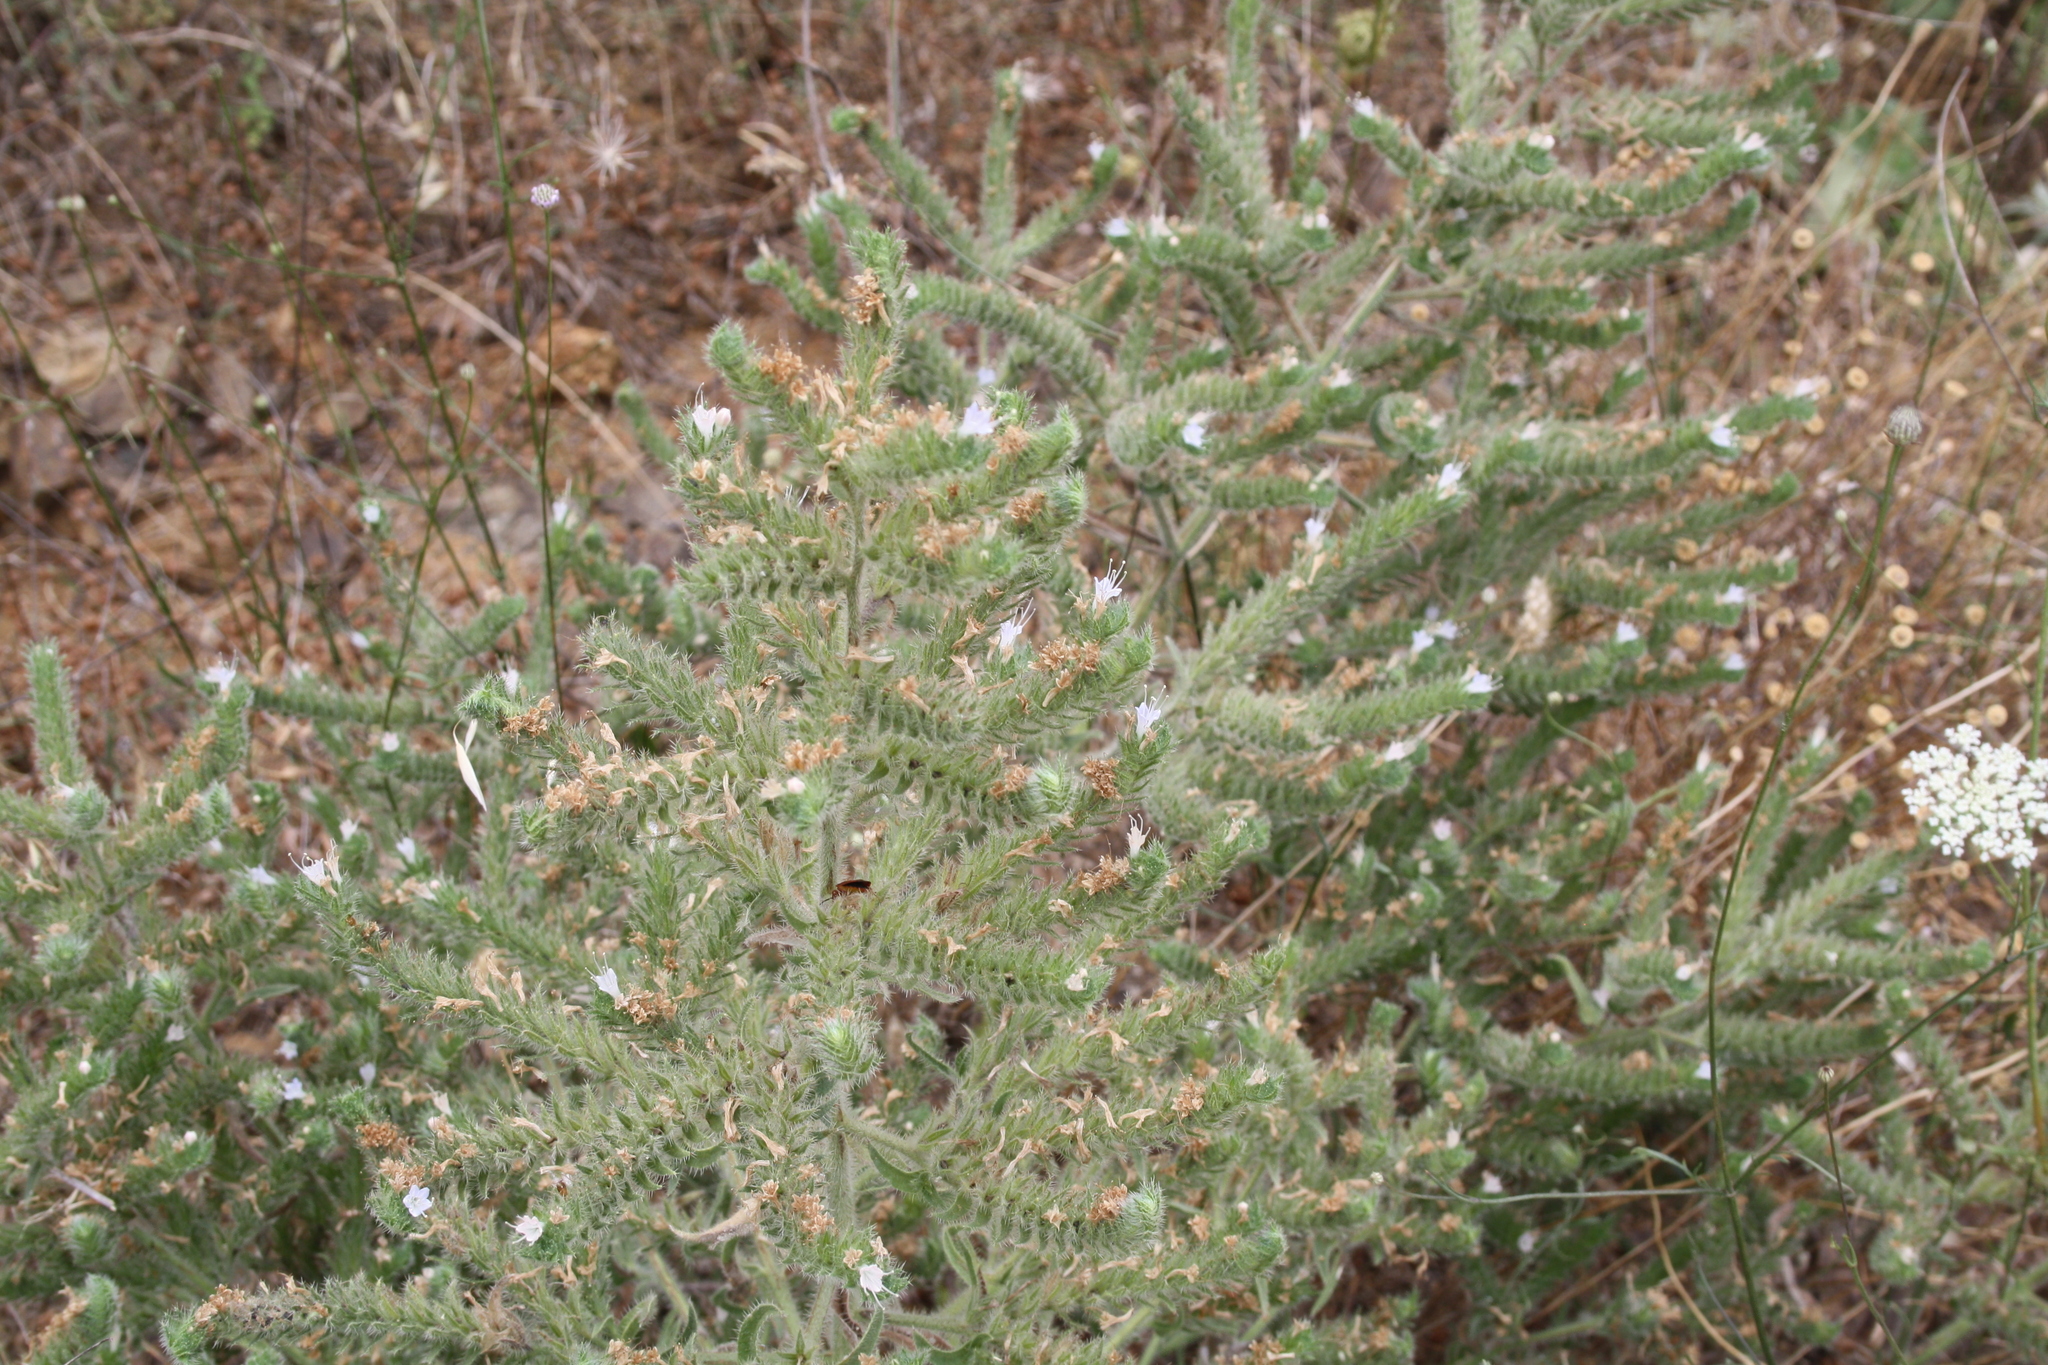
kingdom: Plantae
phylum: Tracheophyta
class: Magnoliopsida
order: Boraginales
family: Boraginaceae
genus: Echium
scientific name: Echium italicum
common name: Italian viper's bugloss
